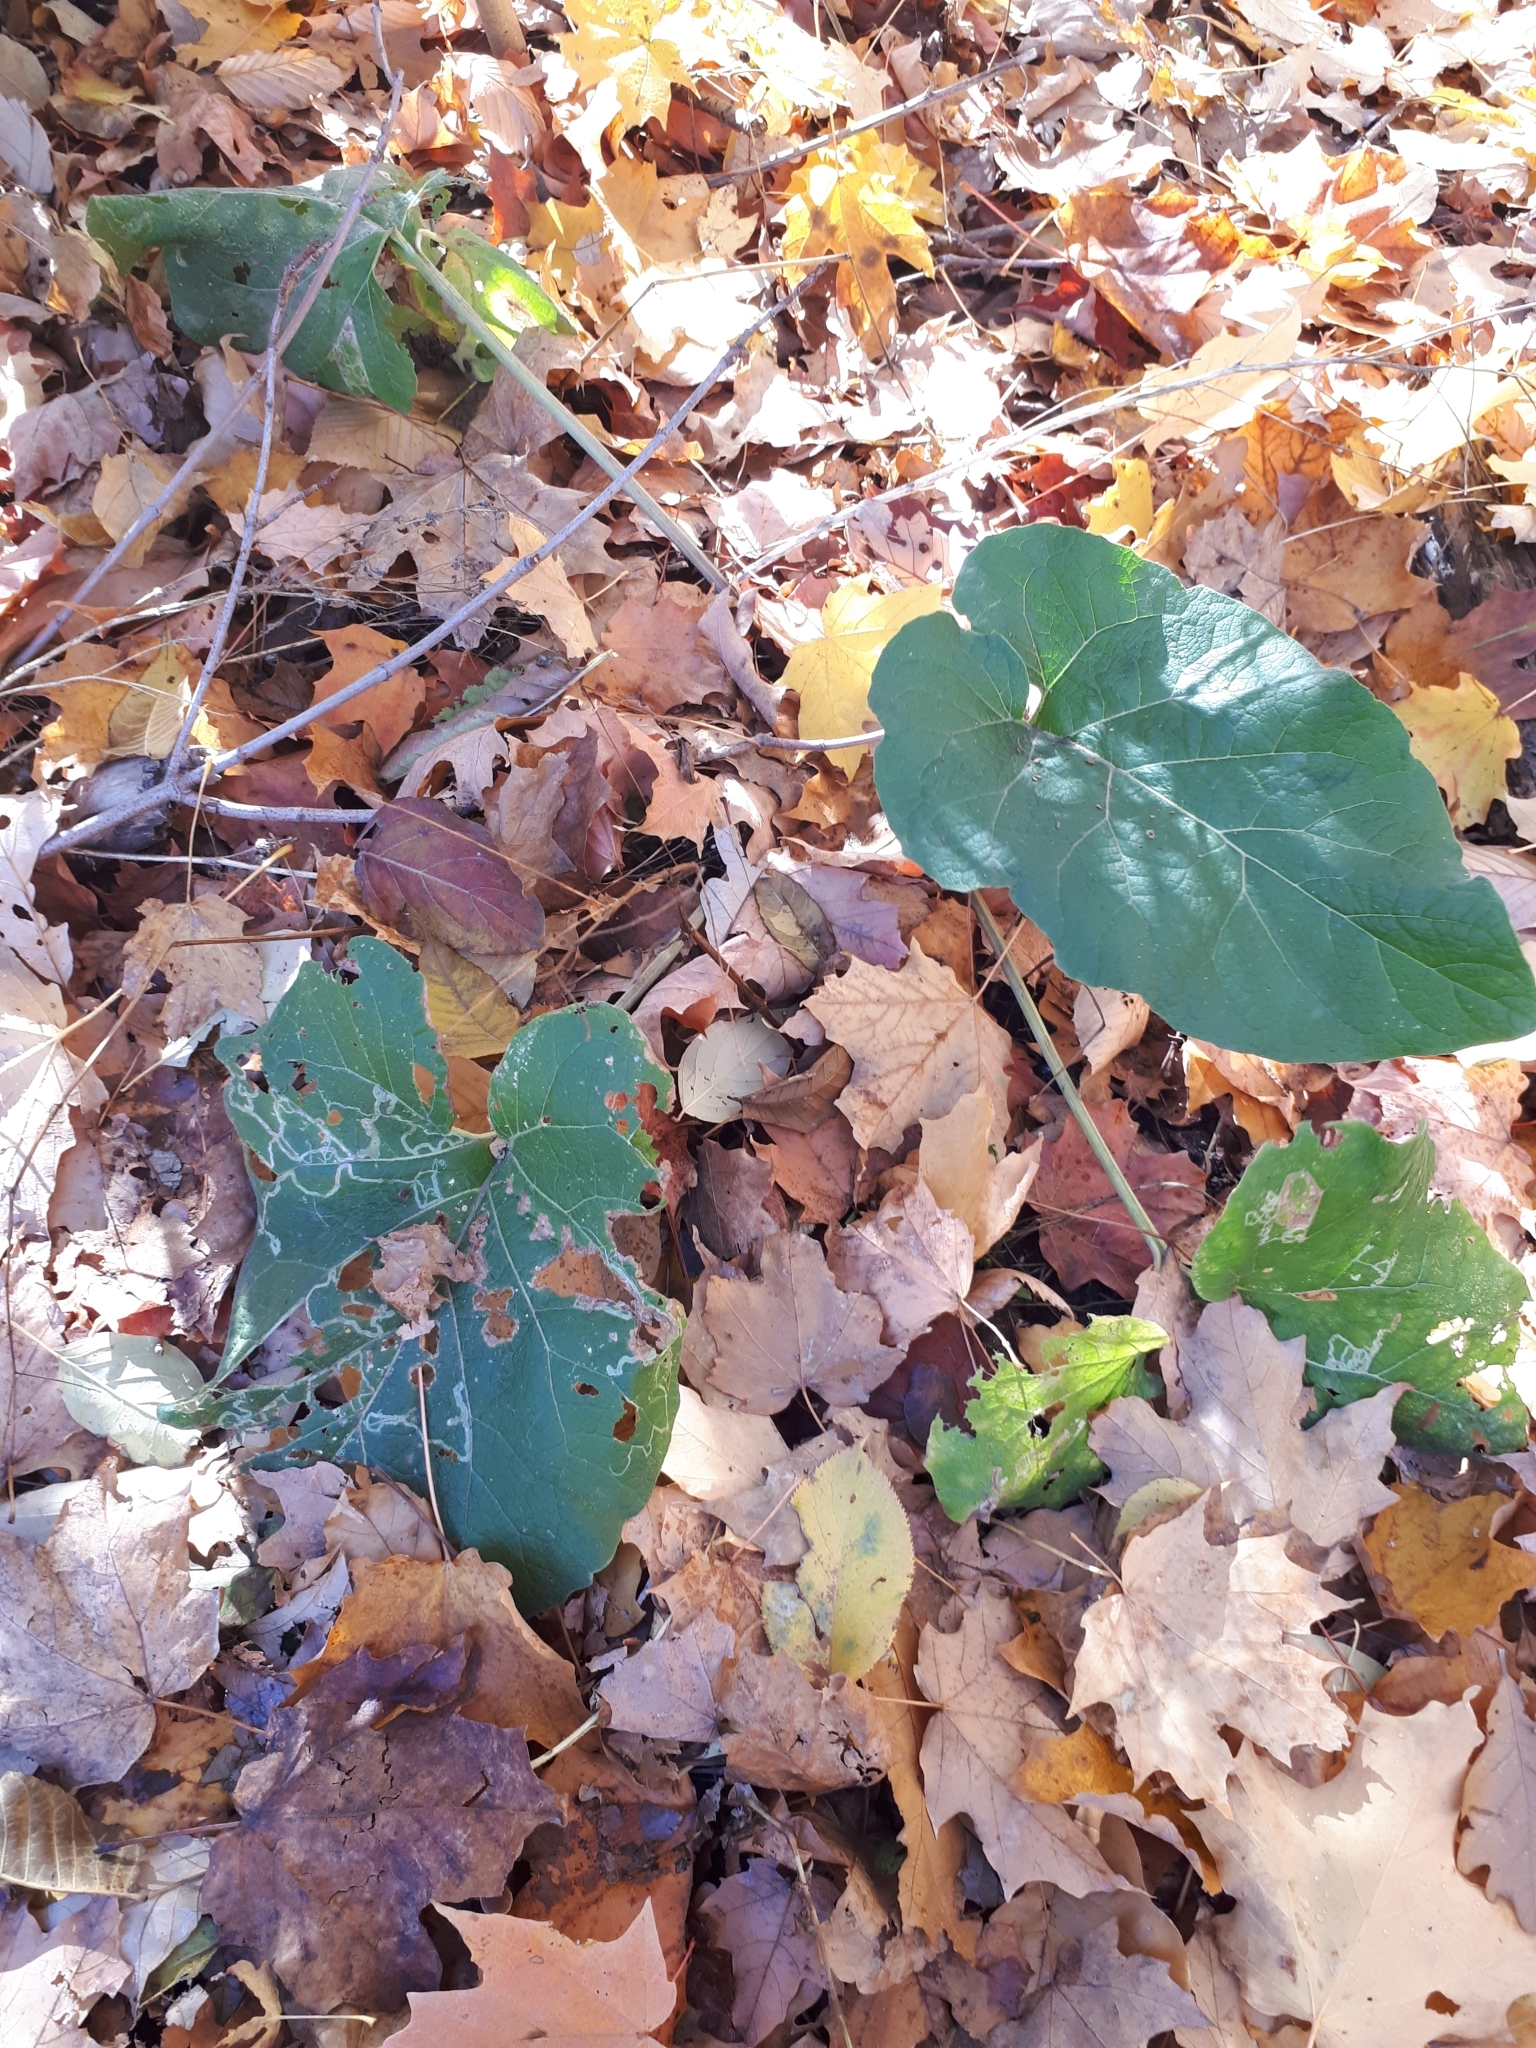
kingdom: Animalia
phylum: Arthropoda
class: Insecta
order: Diptera
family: Agromyzidae
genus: Liriomyza
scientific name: Liriomyza arctii
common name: Burdock leafminer
